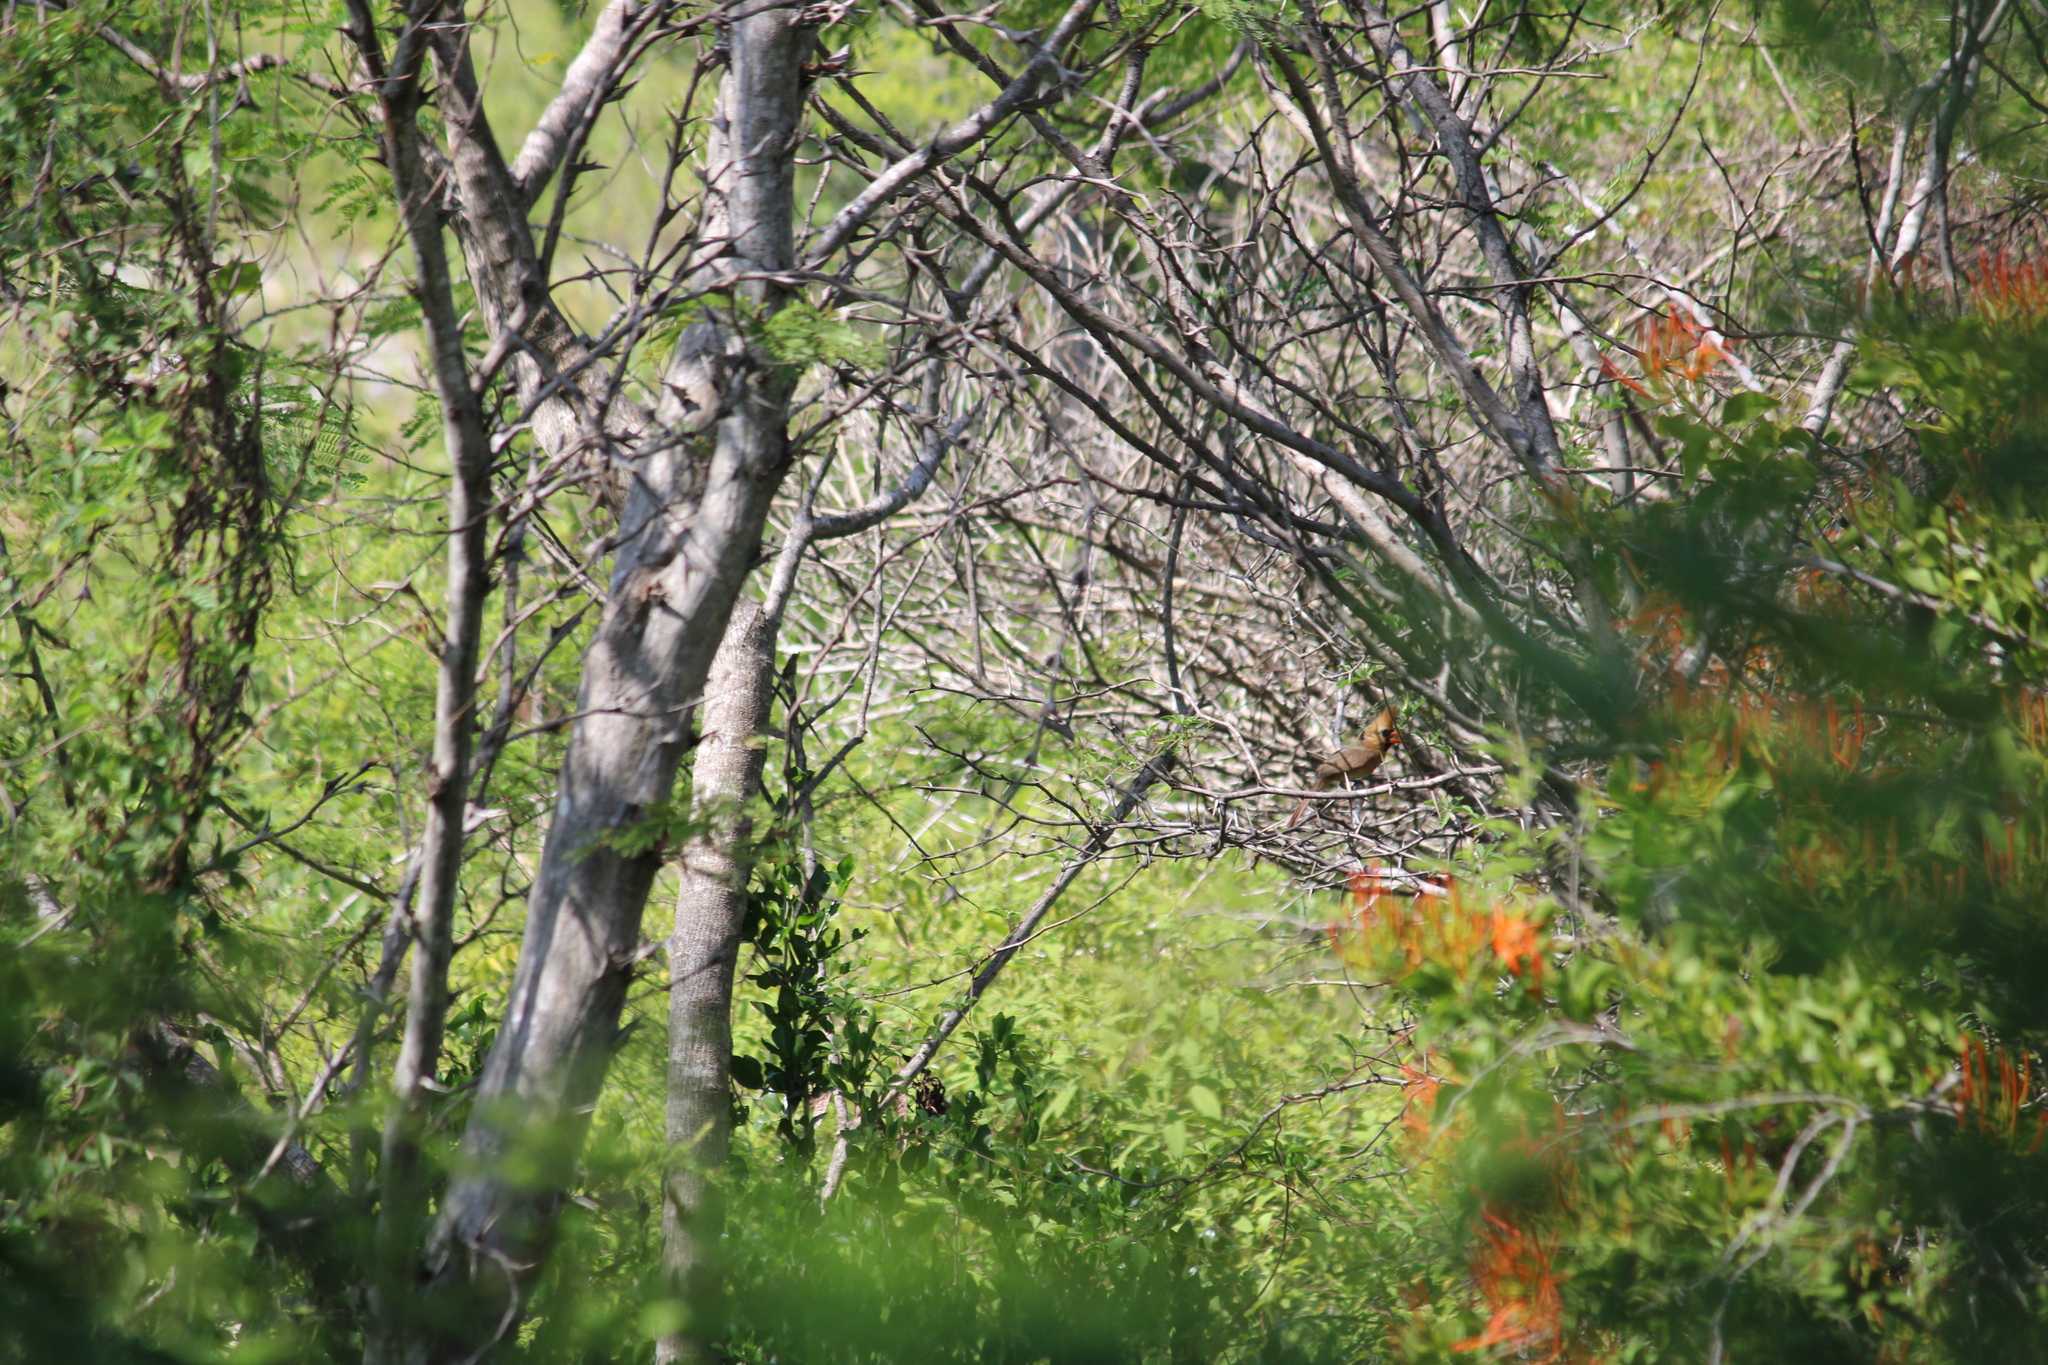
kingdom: Animalia
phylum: Chordata
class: Aves
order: Passeriformes
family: Cardinalidae
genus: Cardinalis
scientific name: Cardinalis cardinalis
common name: Northern cardinal
